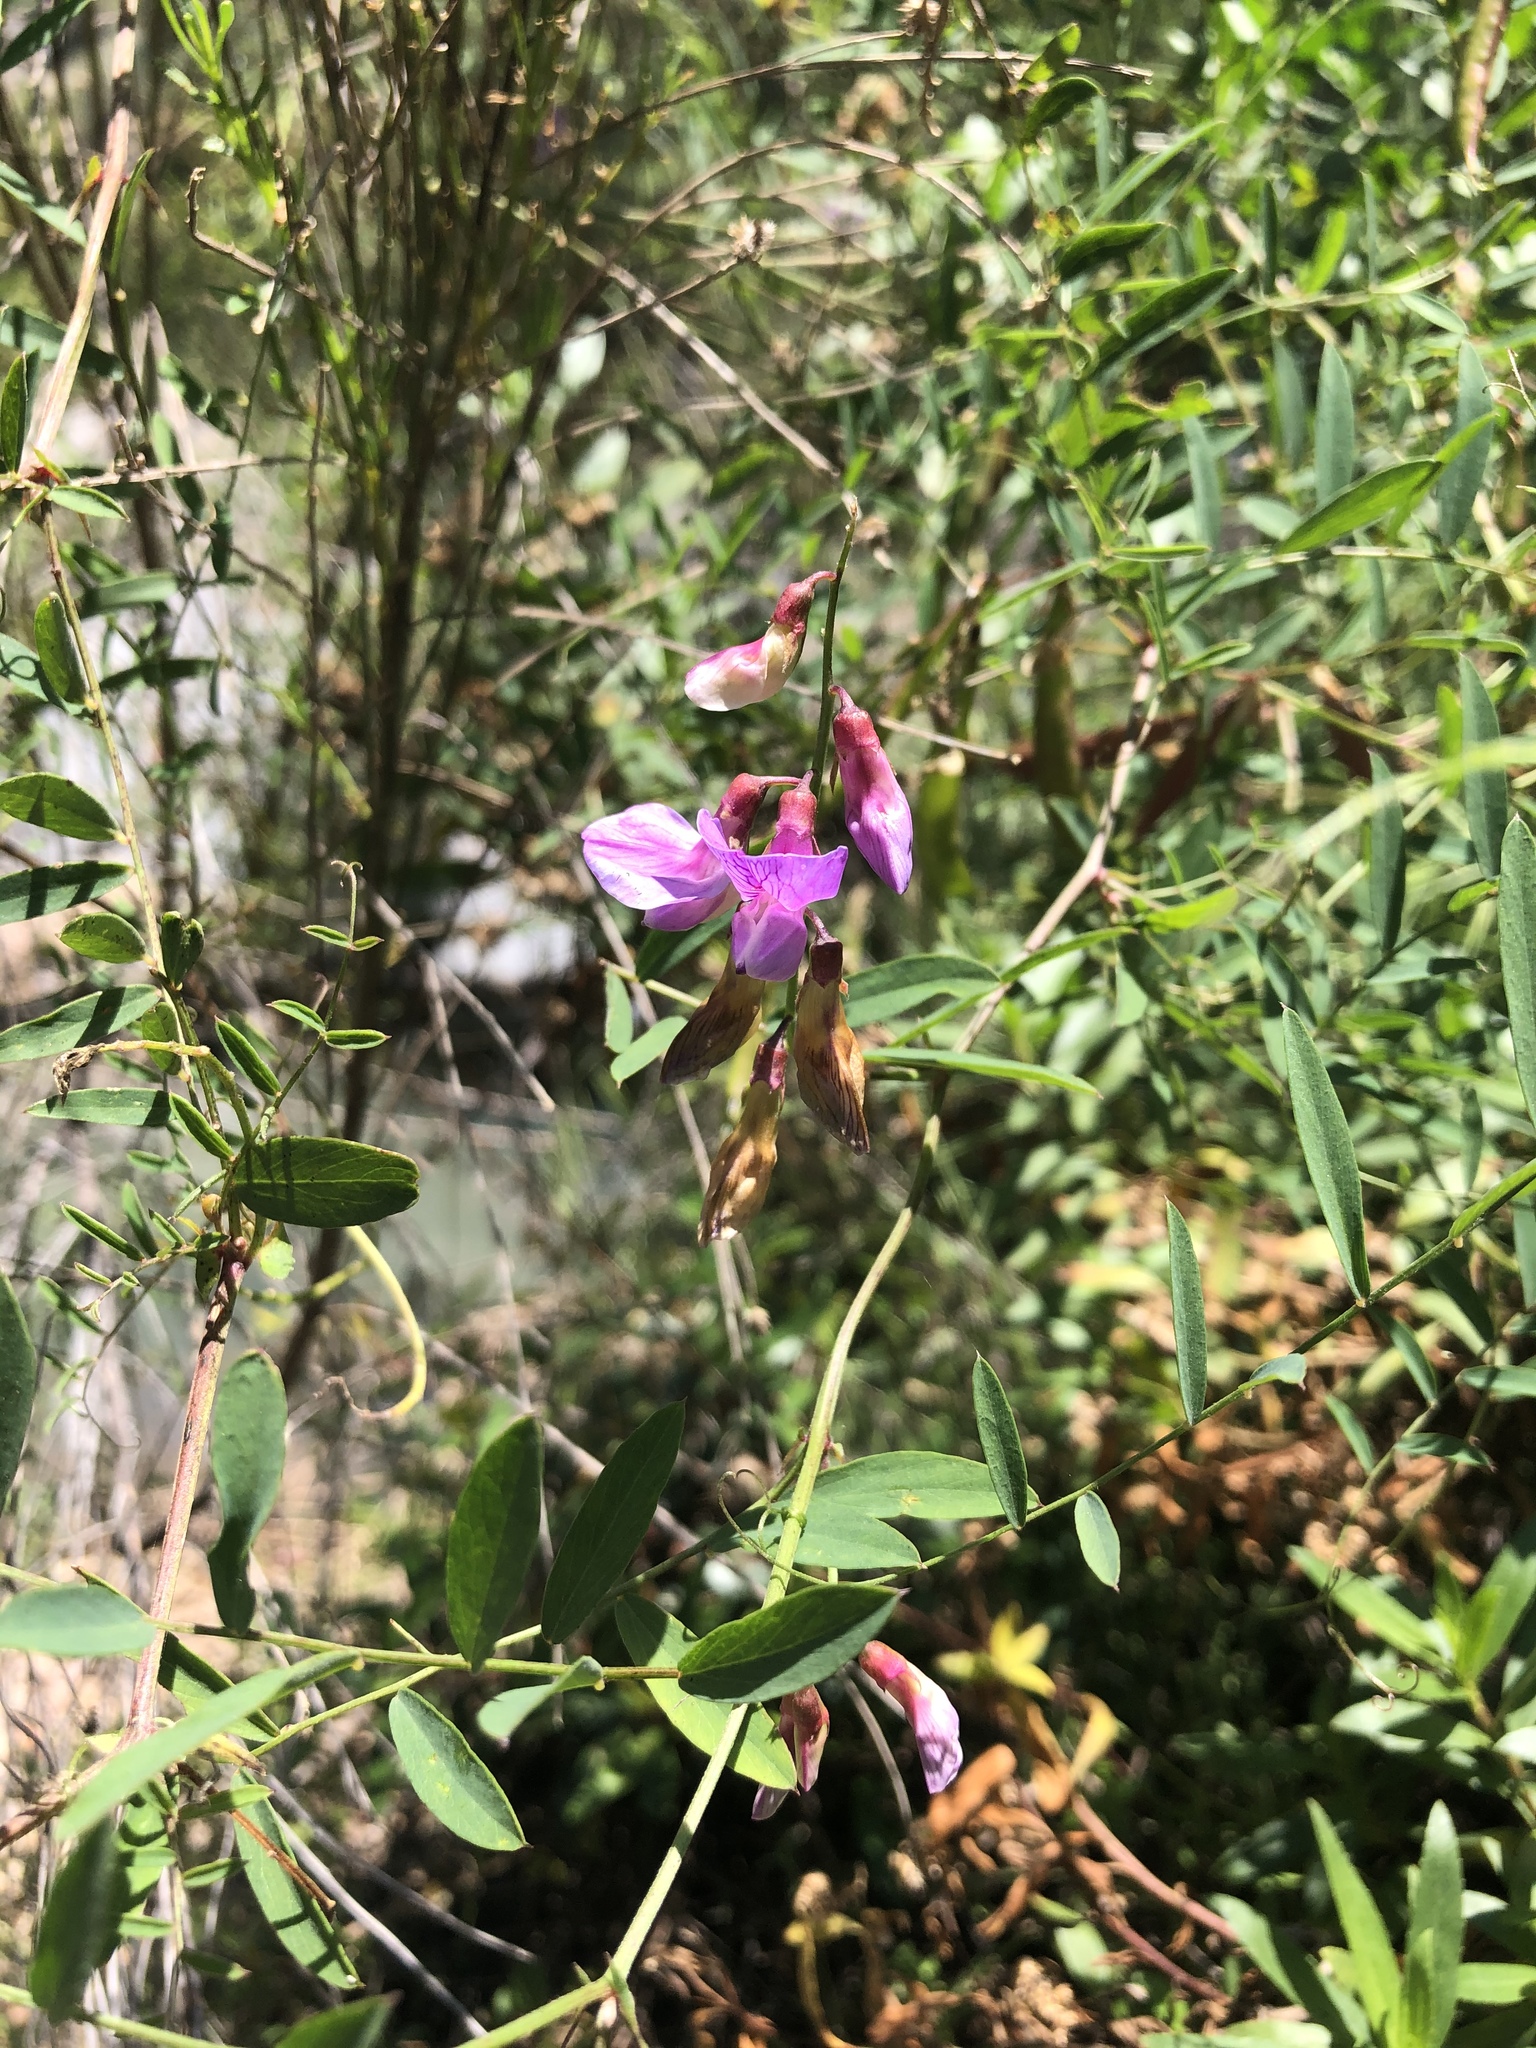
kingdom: Plantae
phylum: Tracheophyta
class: Magnoliopsida
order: Fabales
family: Fabaceae
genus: Lathyrus
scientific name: Lathyrus vestitus
